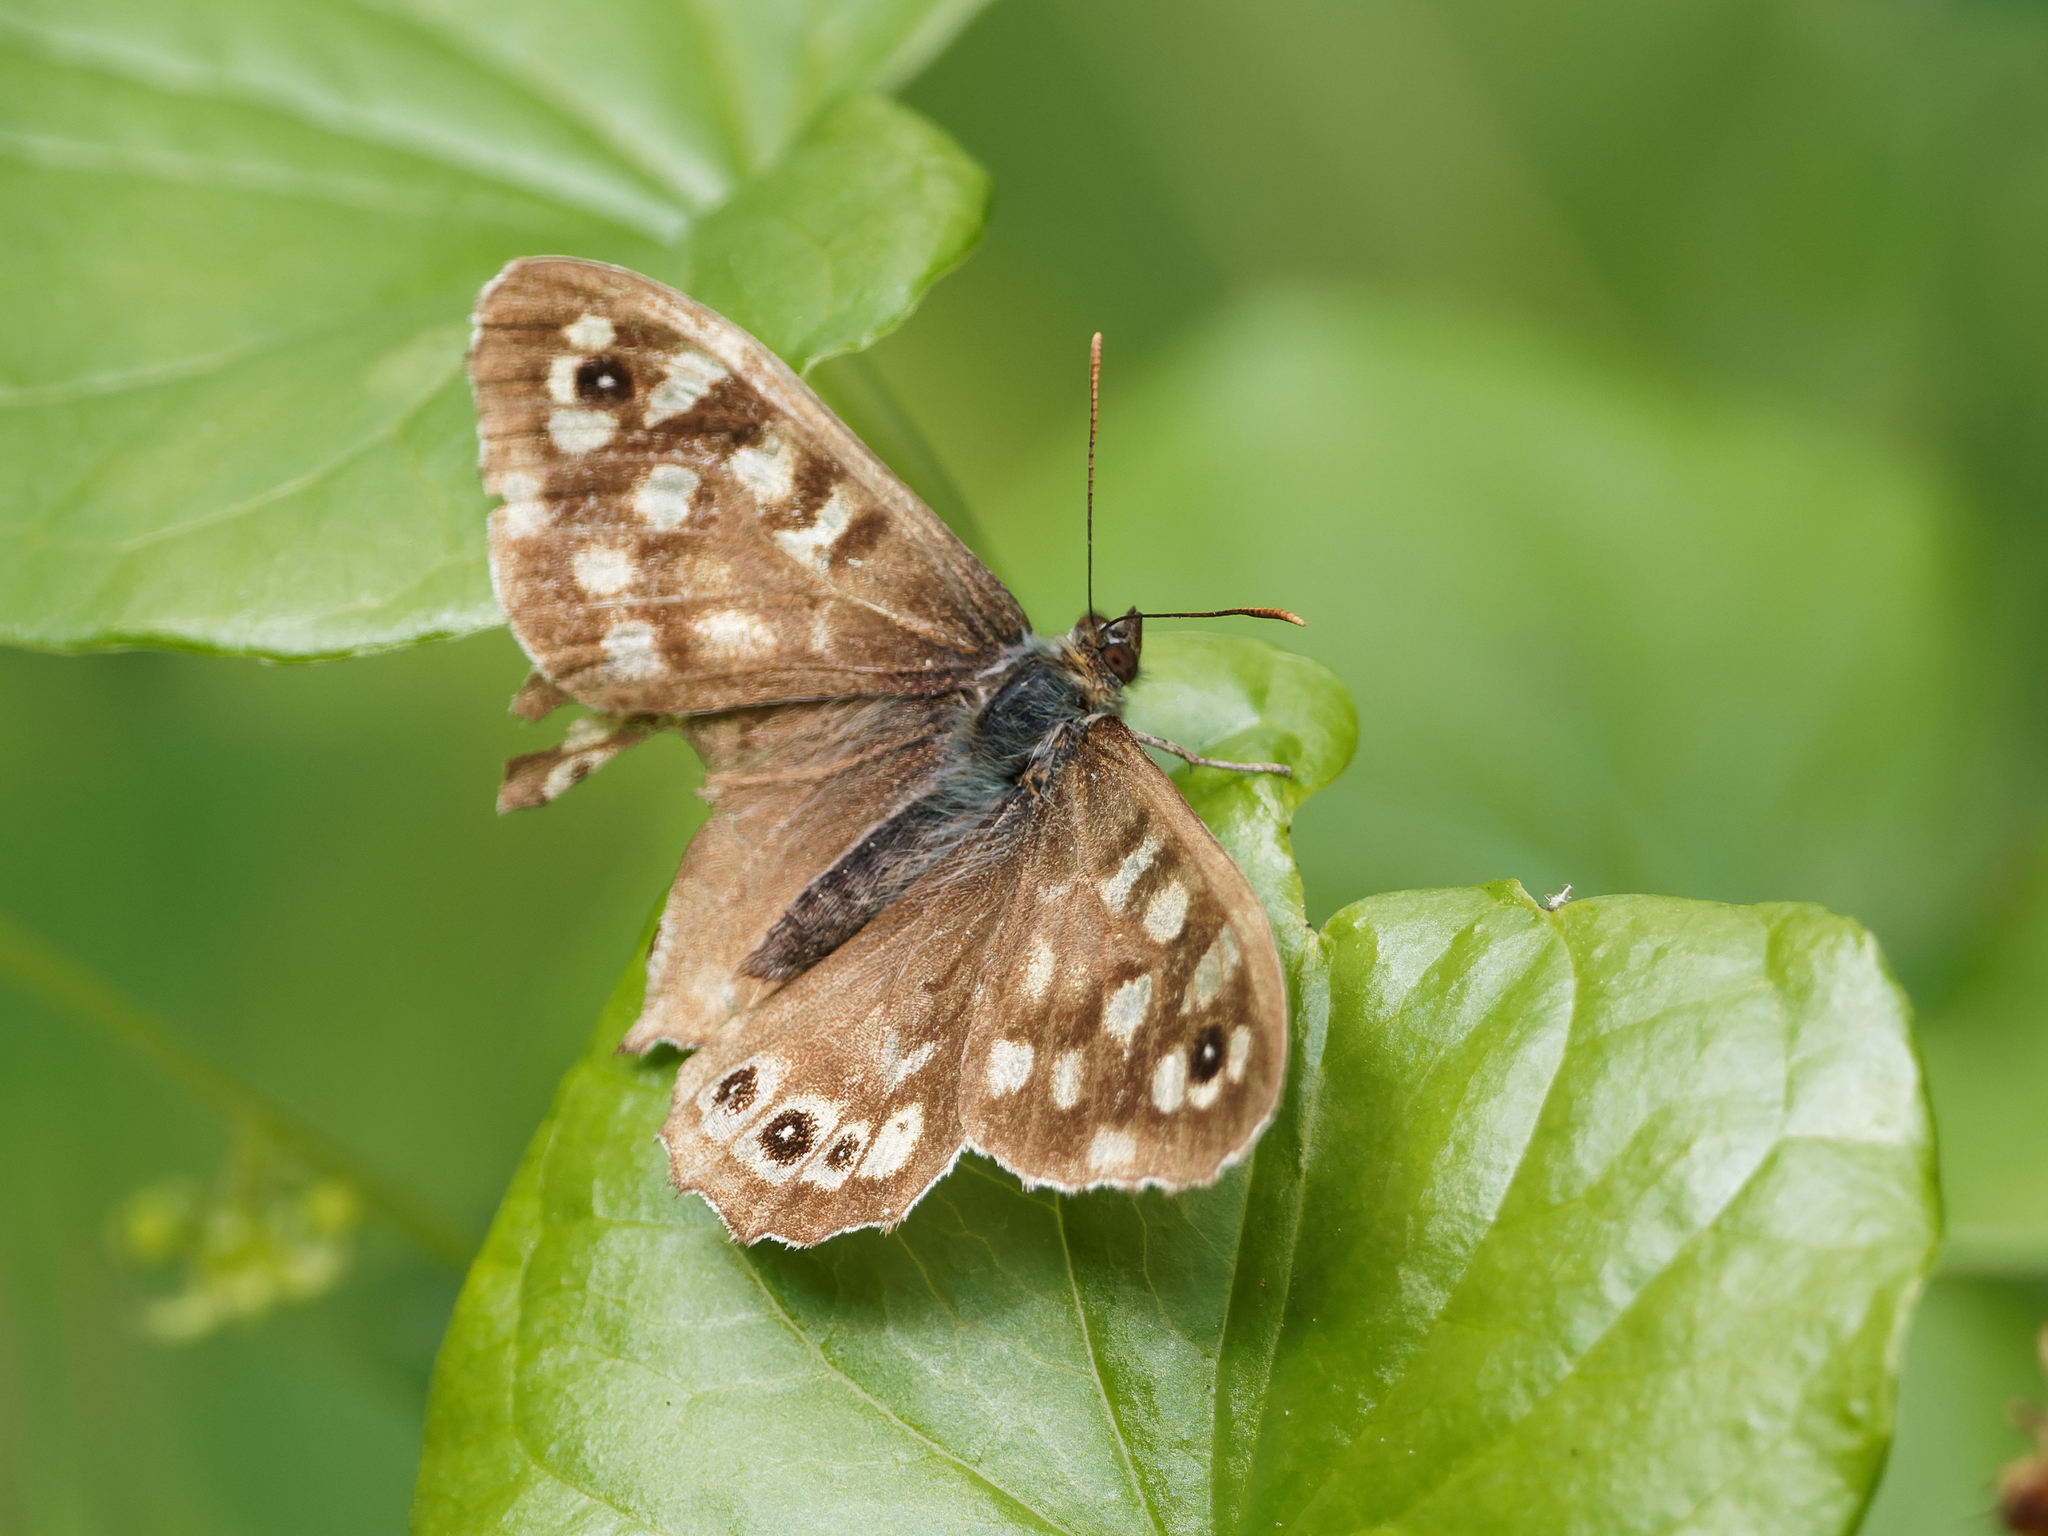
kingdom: Animalia
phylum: Arthropoda
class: Insecta
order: Lepidoptera
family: Nymphalidae
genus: Pararge
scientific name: Pararge aegeria
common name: Speckled wood
